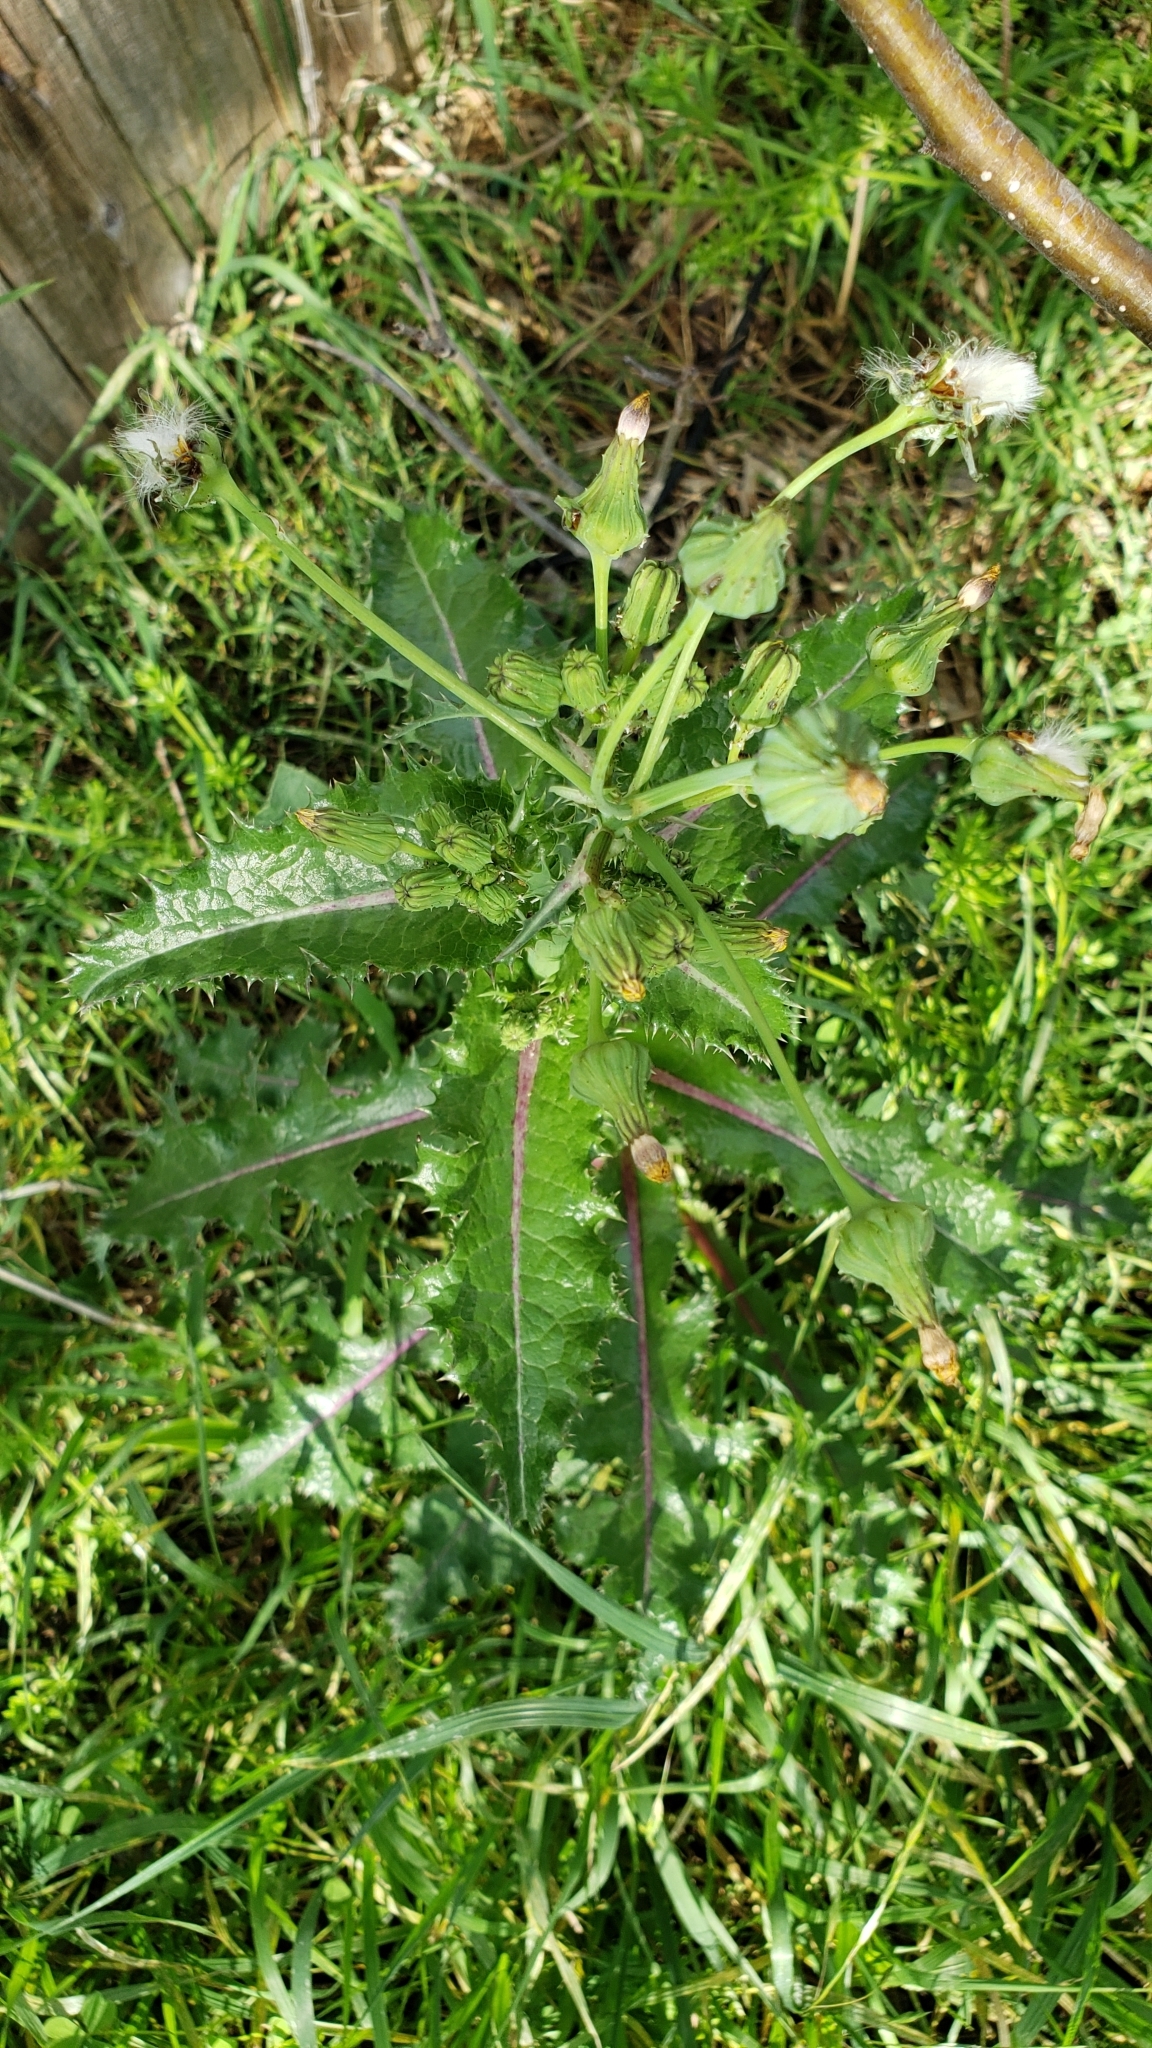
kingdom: Plantae
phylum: Tracheophyta
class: Magnoliopsida
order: Asterales
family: Asteraceae
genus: Sonchus
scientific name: Sonchus asper
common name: Prickly sow-thistle
